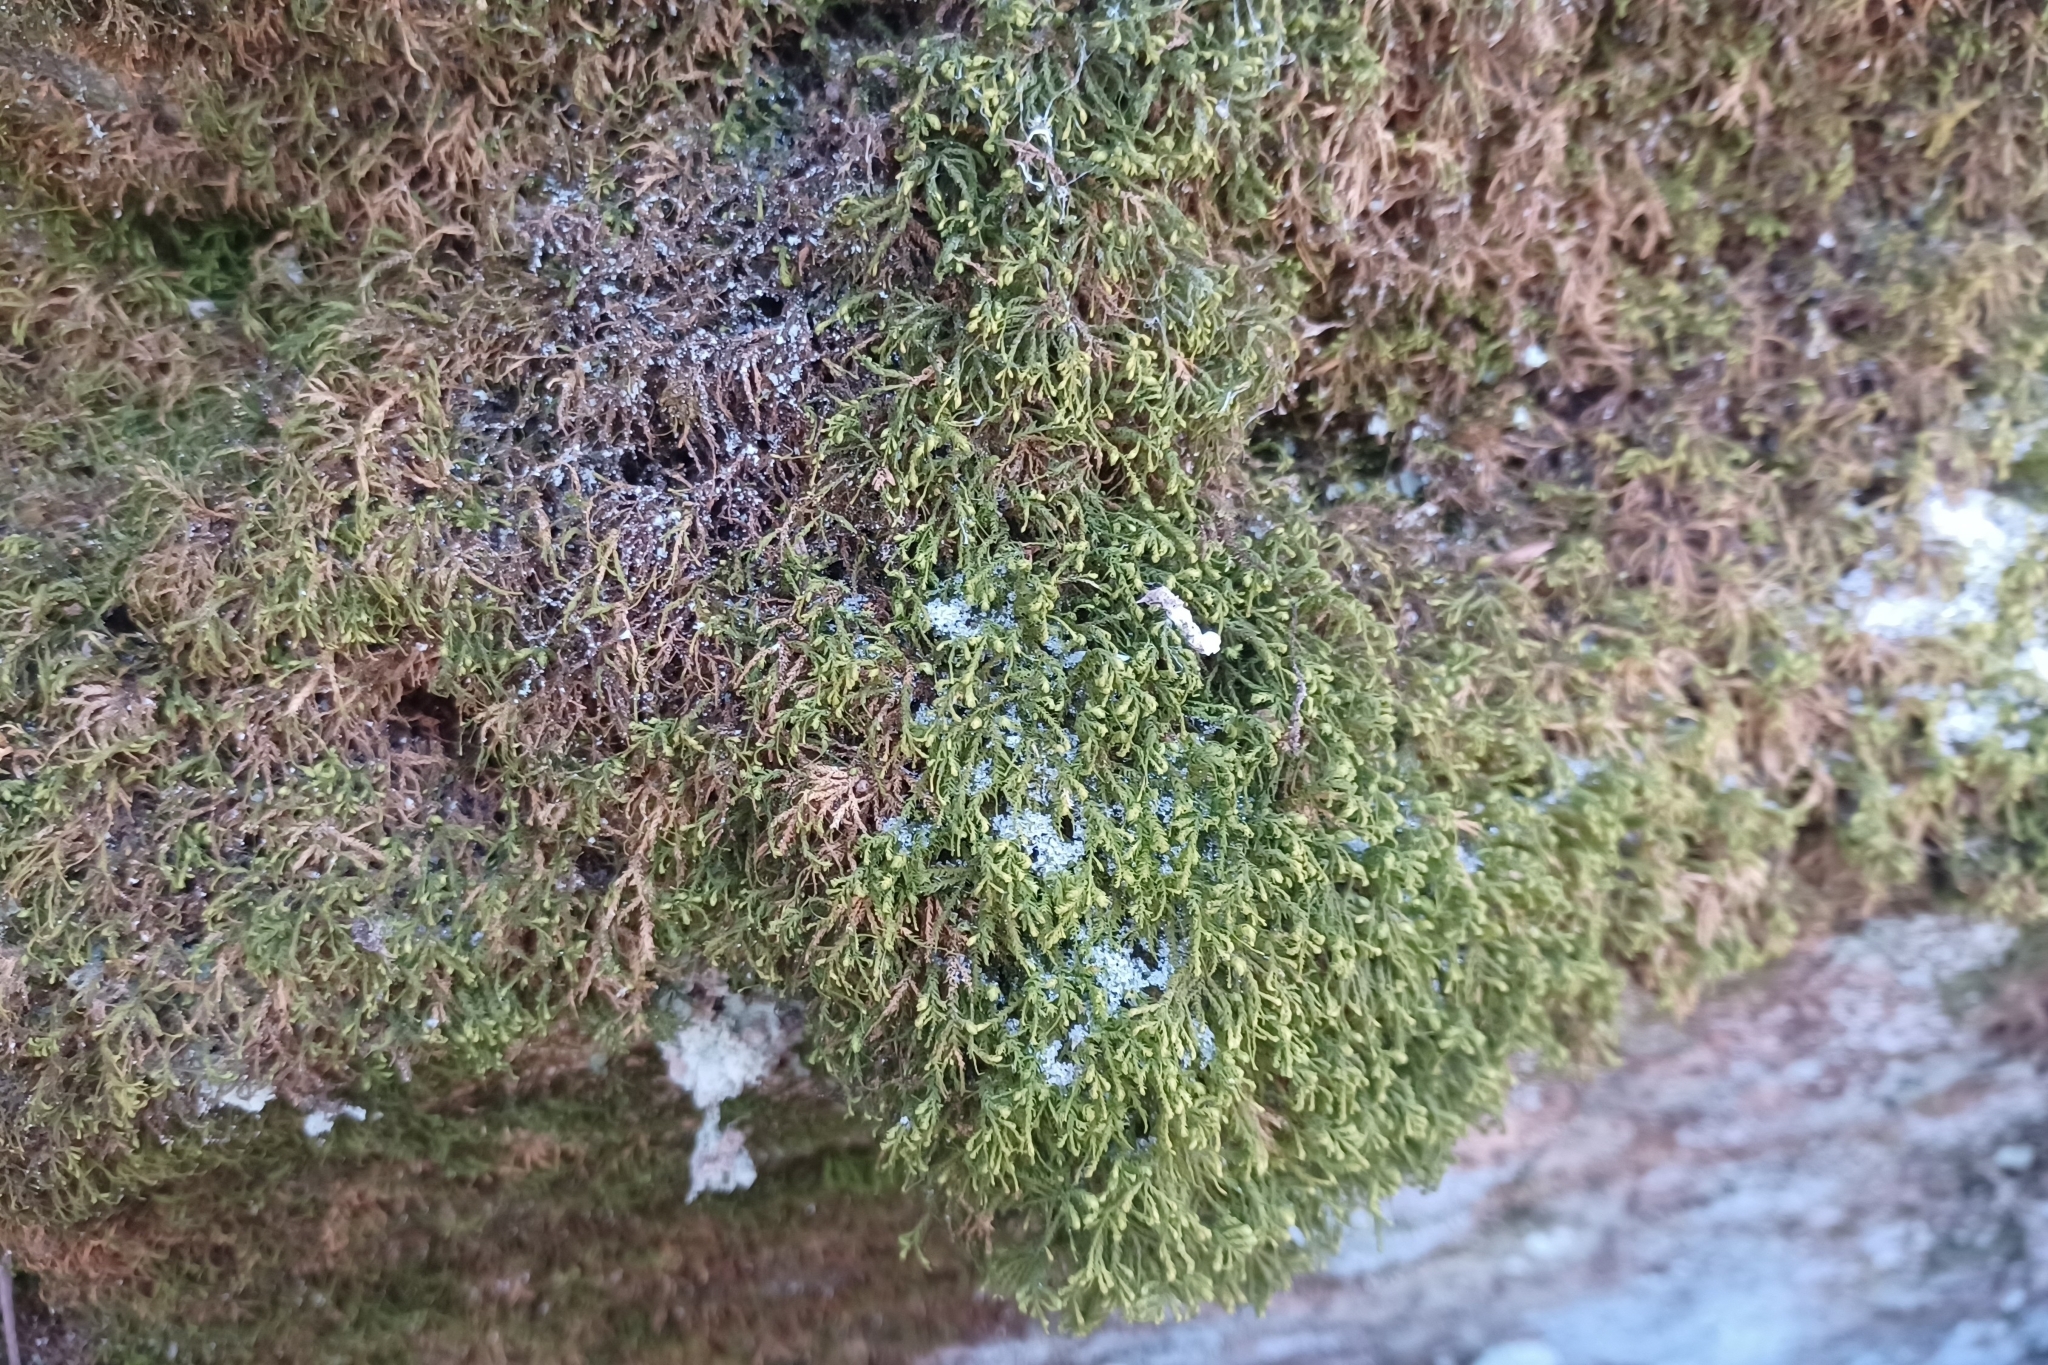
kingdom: Plantae
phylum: Bryophyta
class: Bryopsida
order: Hypnales
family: Neckeraceae
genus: Pseudanomodon
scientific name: Pseudanomodon attenuatus
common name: Tree-skirt moss
